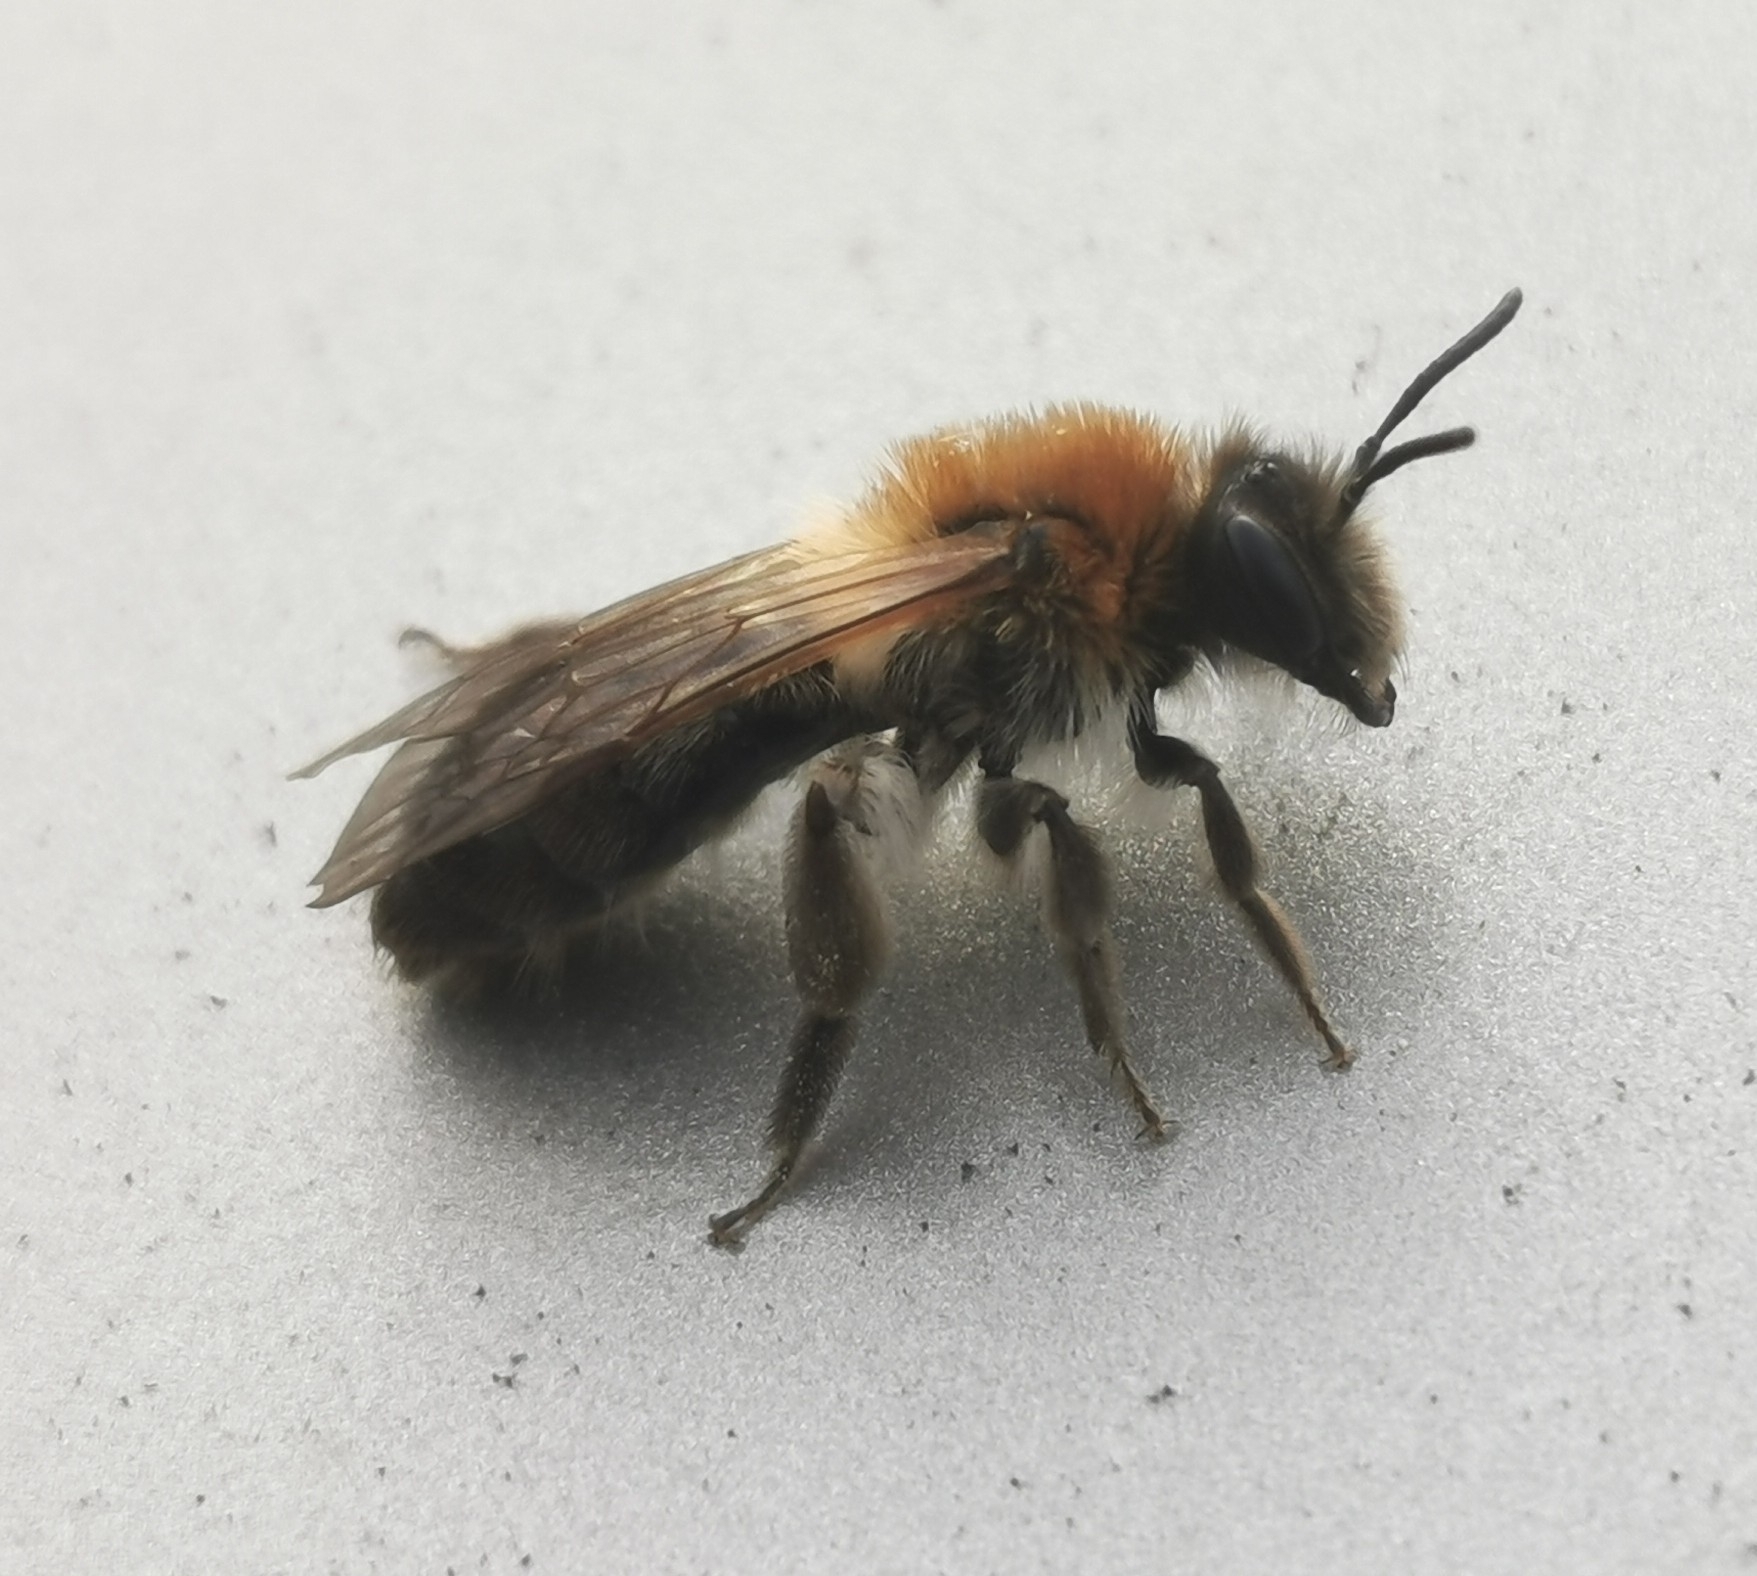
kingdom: Animalia
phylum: Arthropoda
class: Insecta
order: Hymenoptera
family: Andrenidae
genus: Andrena
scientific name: Andrena nitida
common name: Grey-patched mining bee
